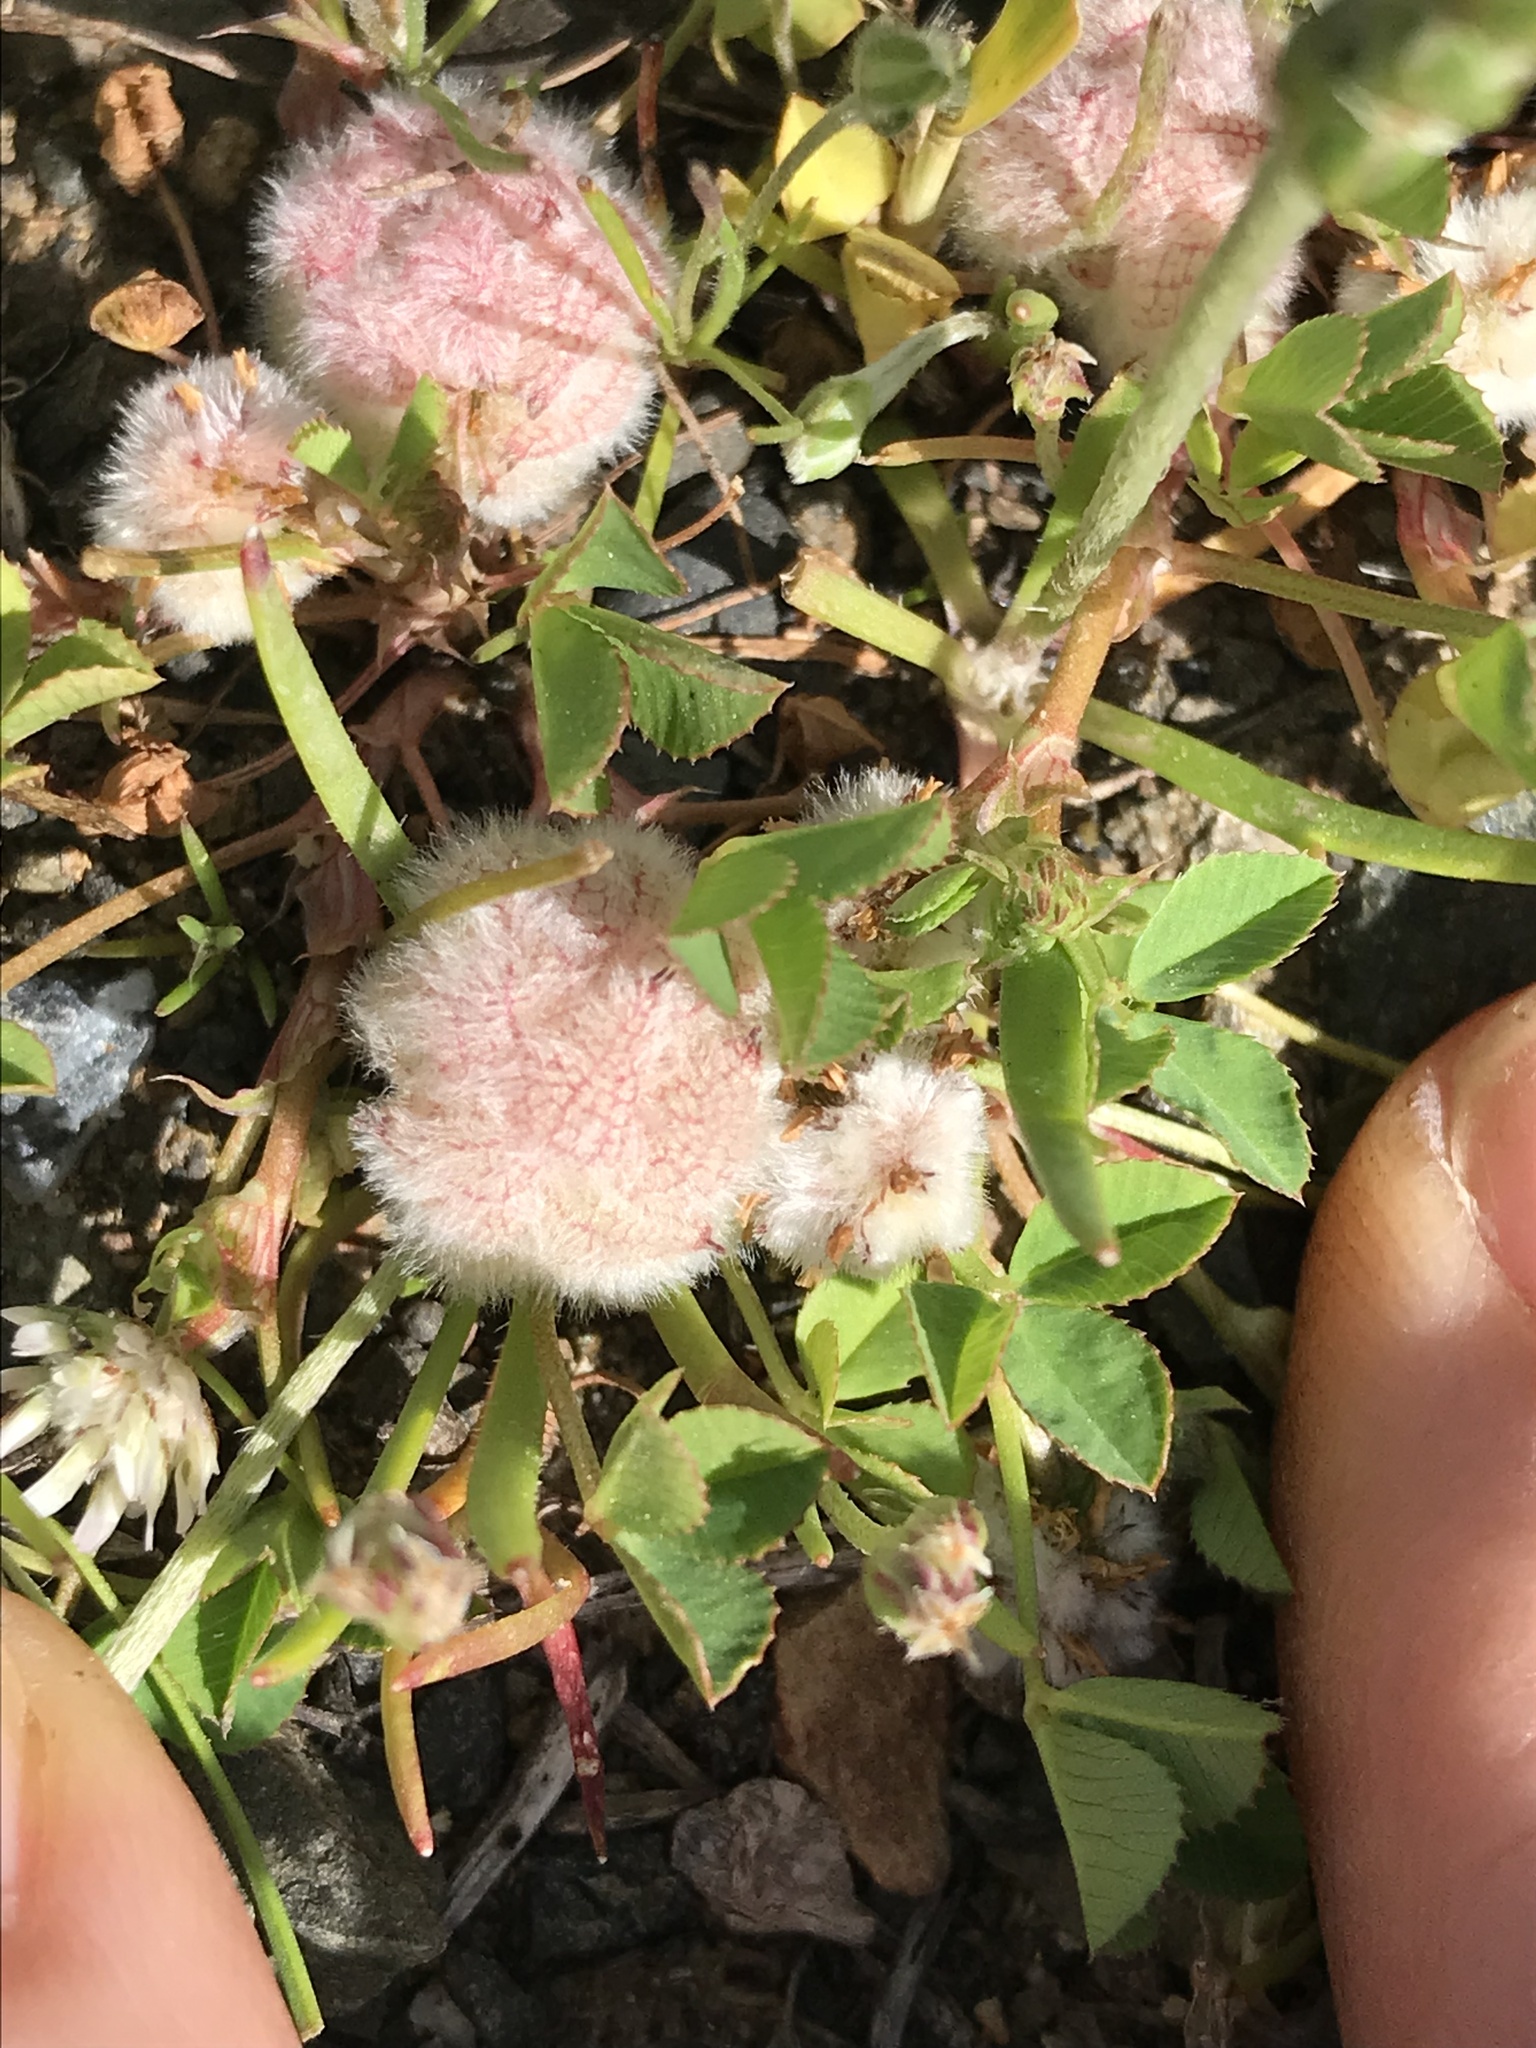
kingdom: Plantae
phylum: Tracheophyta
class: Magnoliopsida
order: Fabales
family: Fabaceae
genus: Trifolium
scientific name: Trifolium tomentosum
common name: Woolly clover
